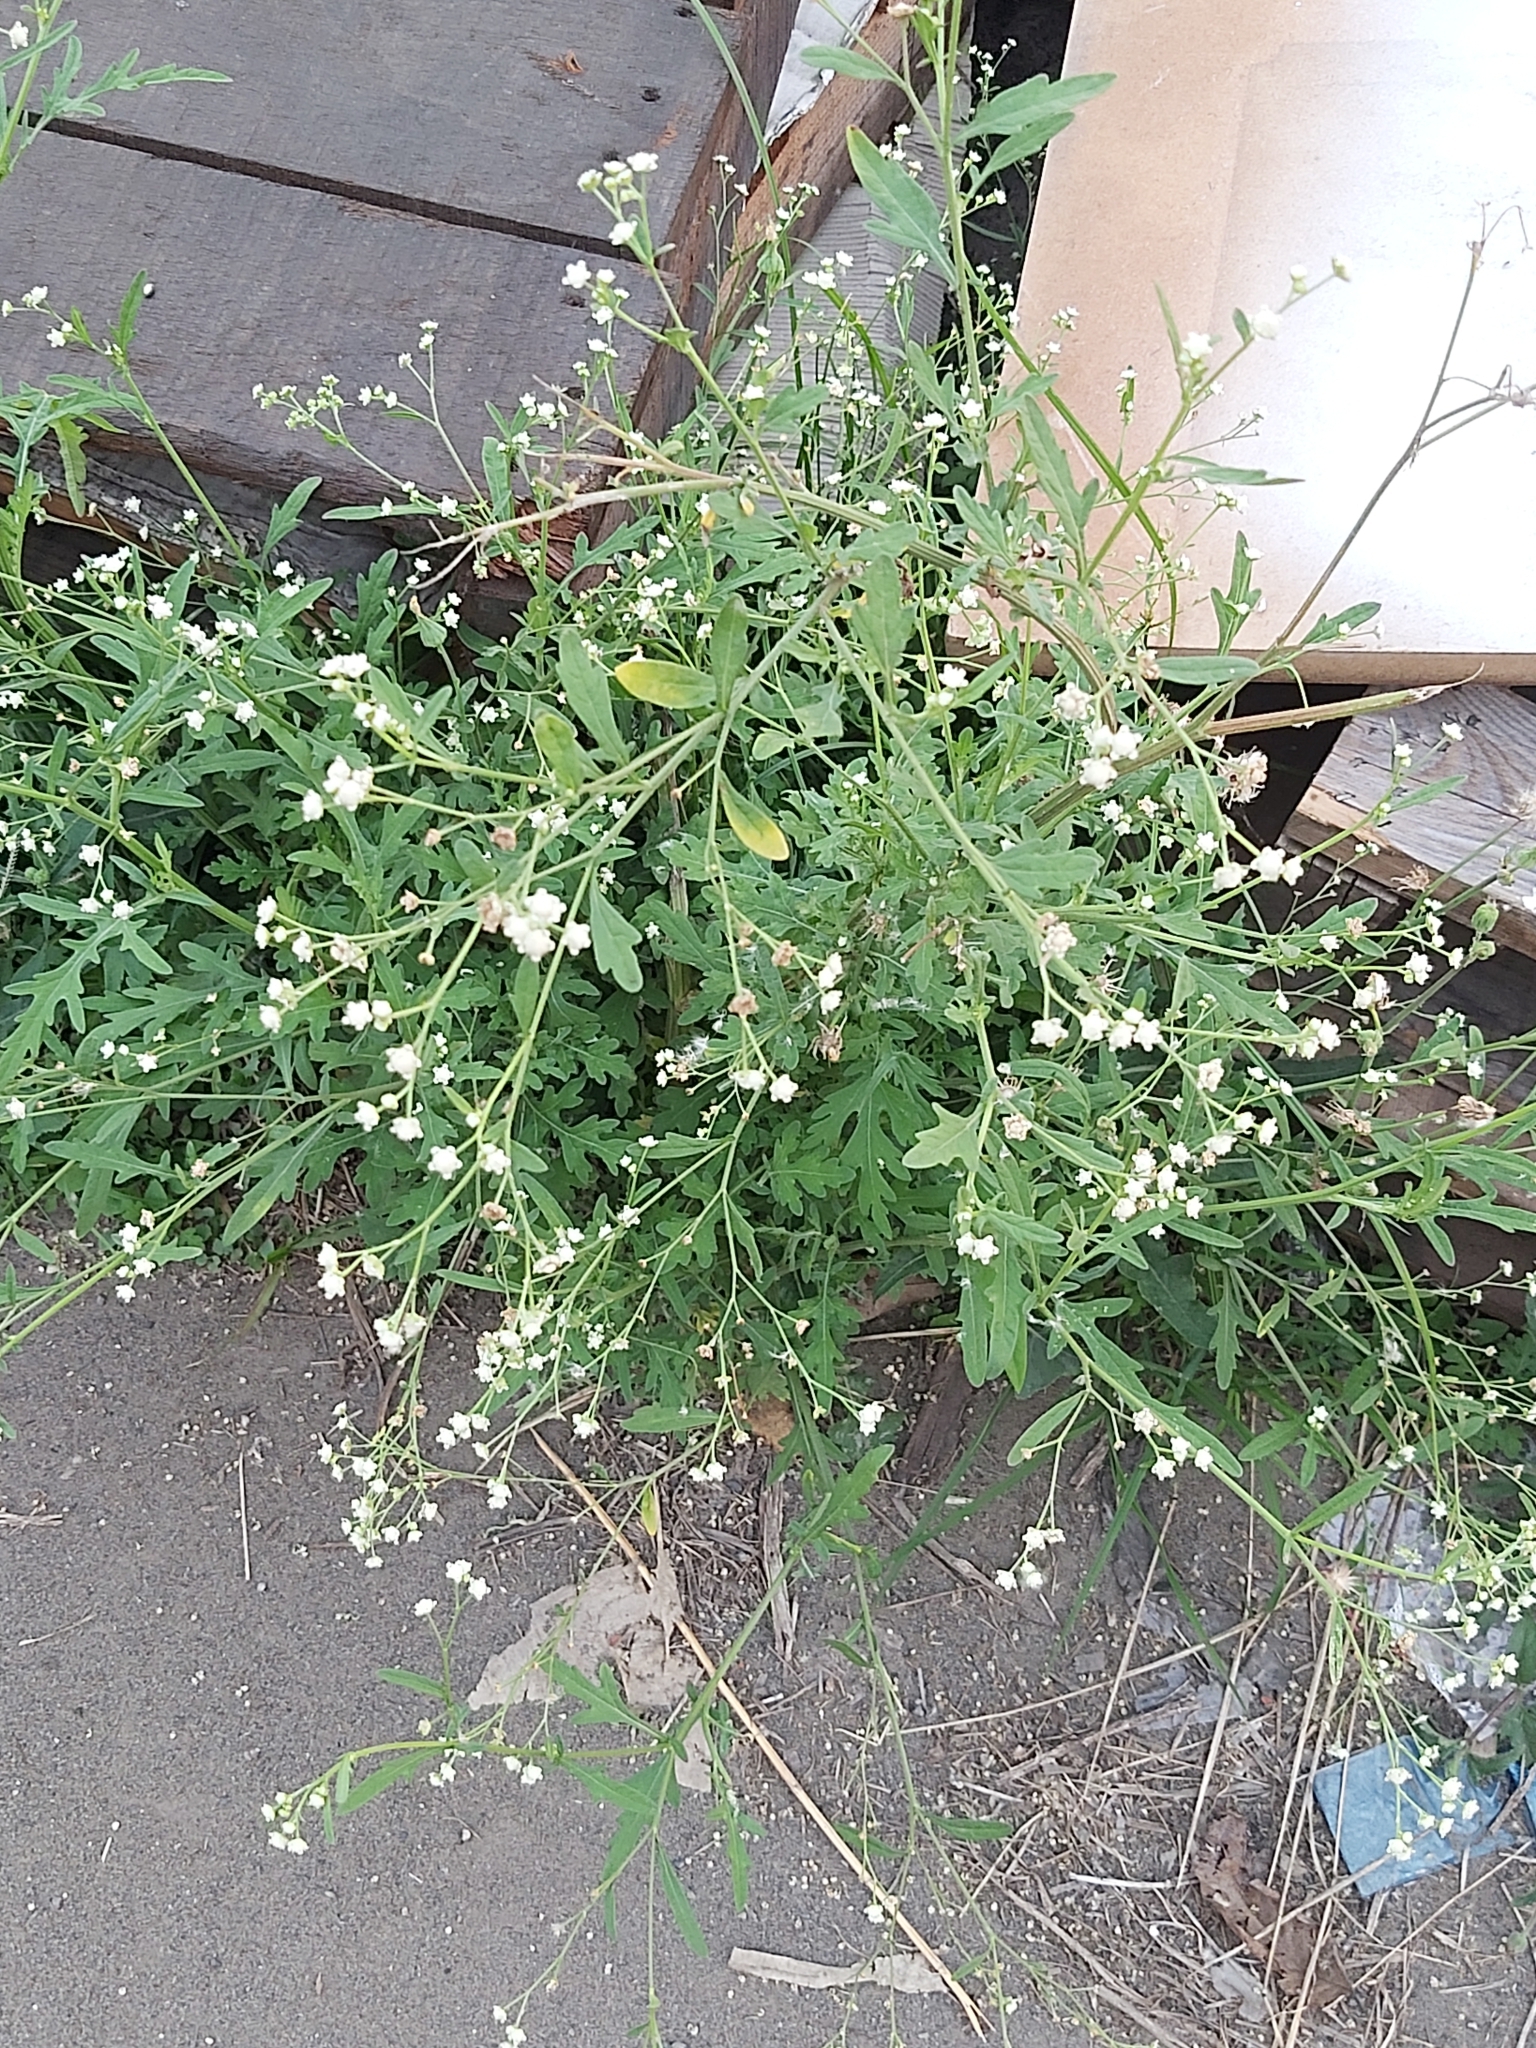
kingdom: Plantae
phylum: Tracheophyta
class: Magnoliopsida
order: Asterales
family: Asteraceae
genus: Parthenium
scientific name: Parthenium hysterophorus
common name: Santa maria feverfew
